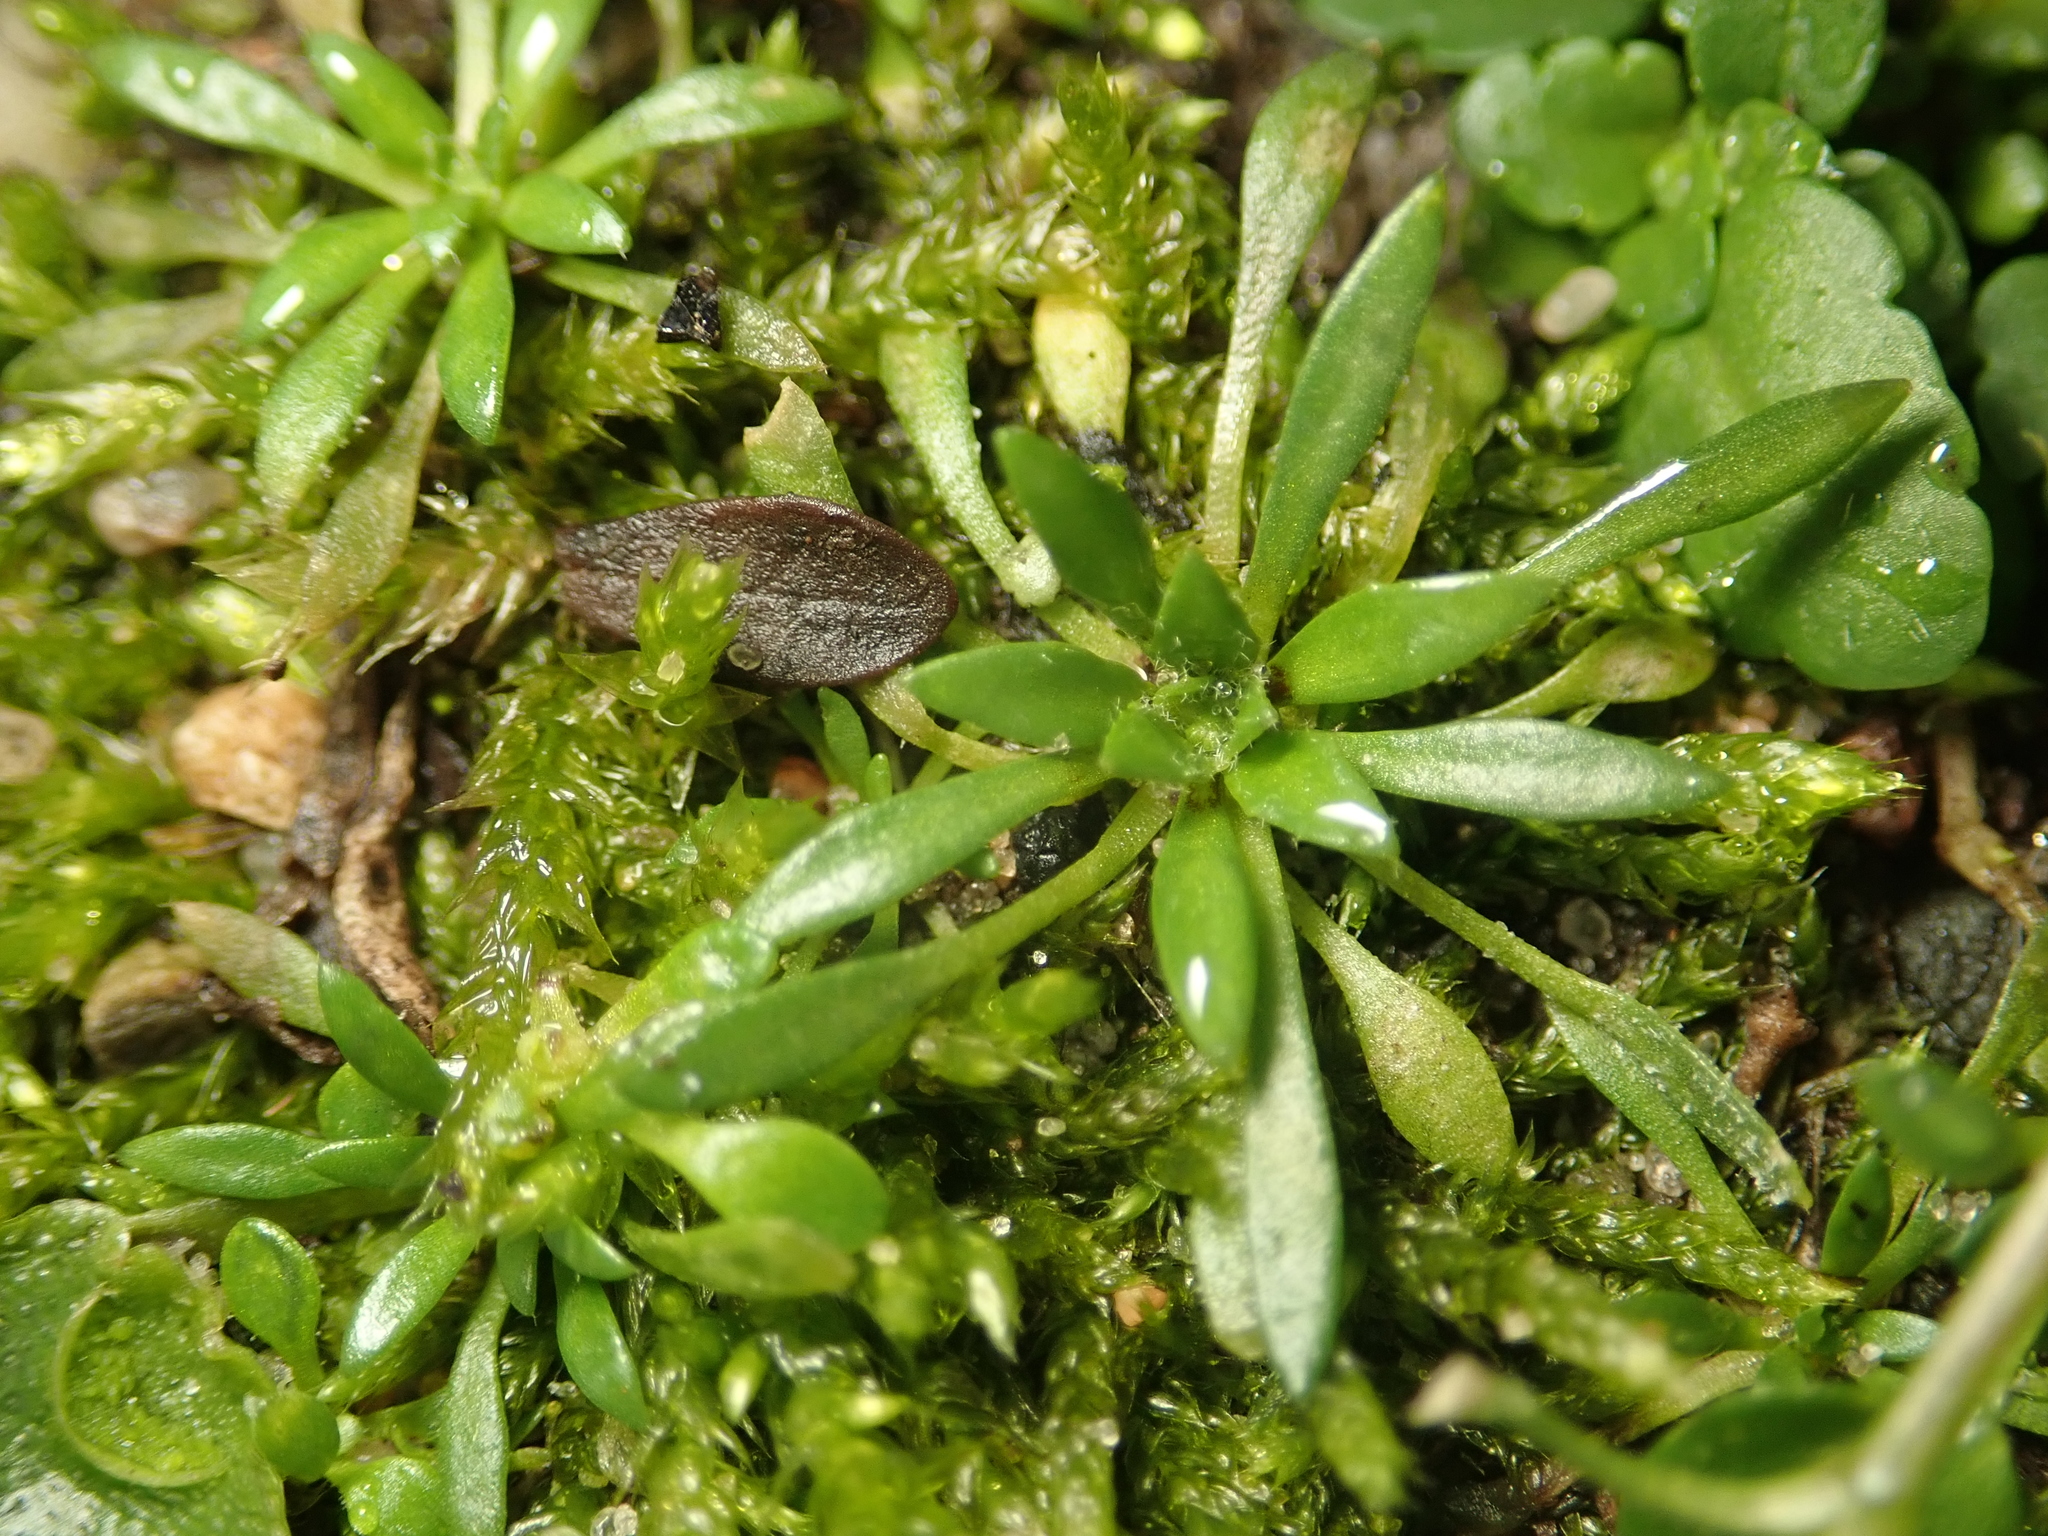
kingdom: Plantae
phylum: Tracheophyta
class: Magnoliopsida
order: Brassicales
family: Brassicaceae
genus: Draba
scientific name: Draba verna
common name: Spring draba
